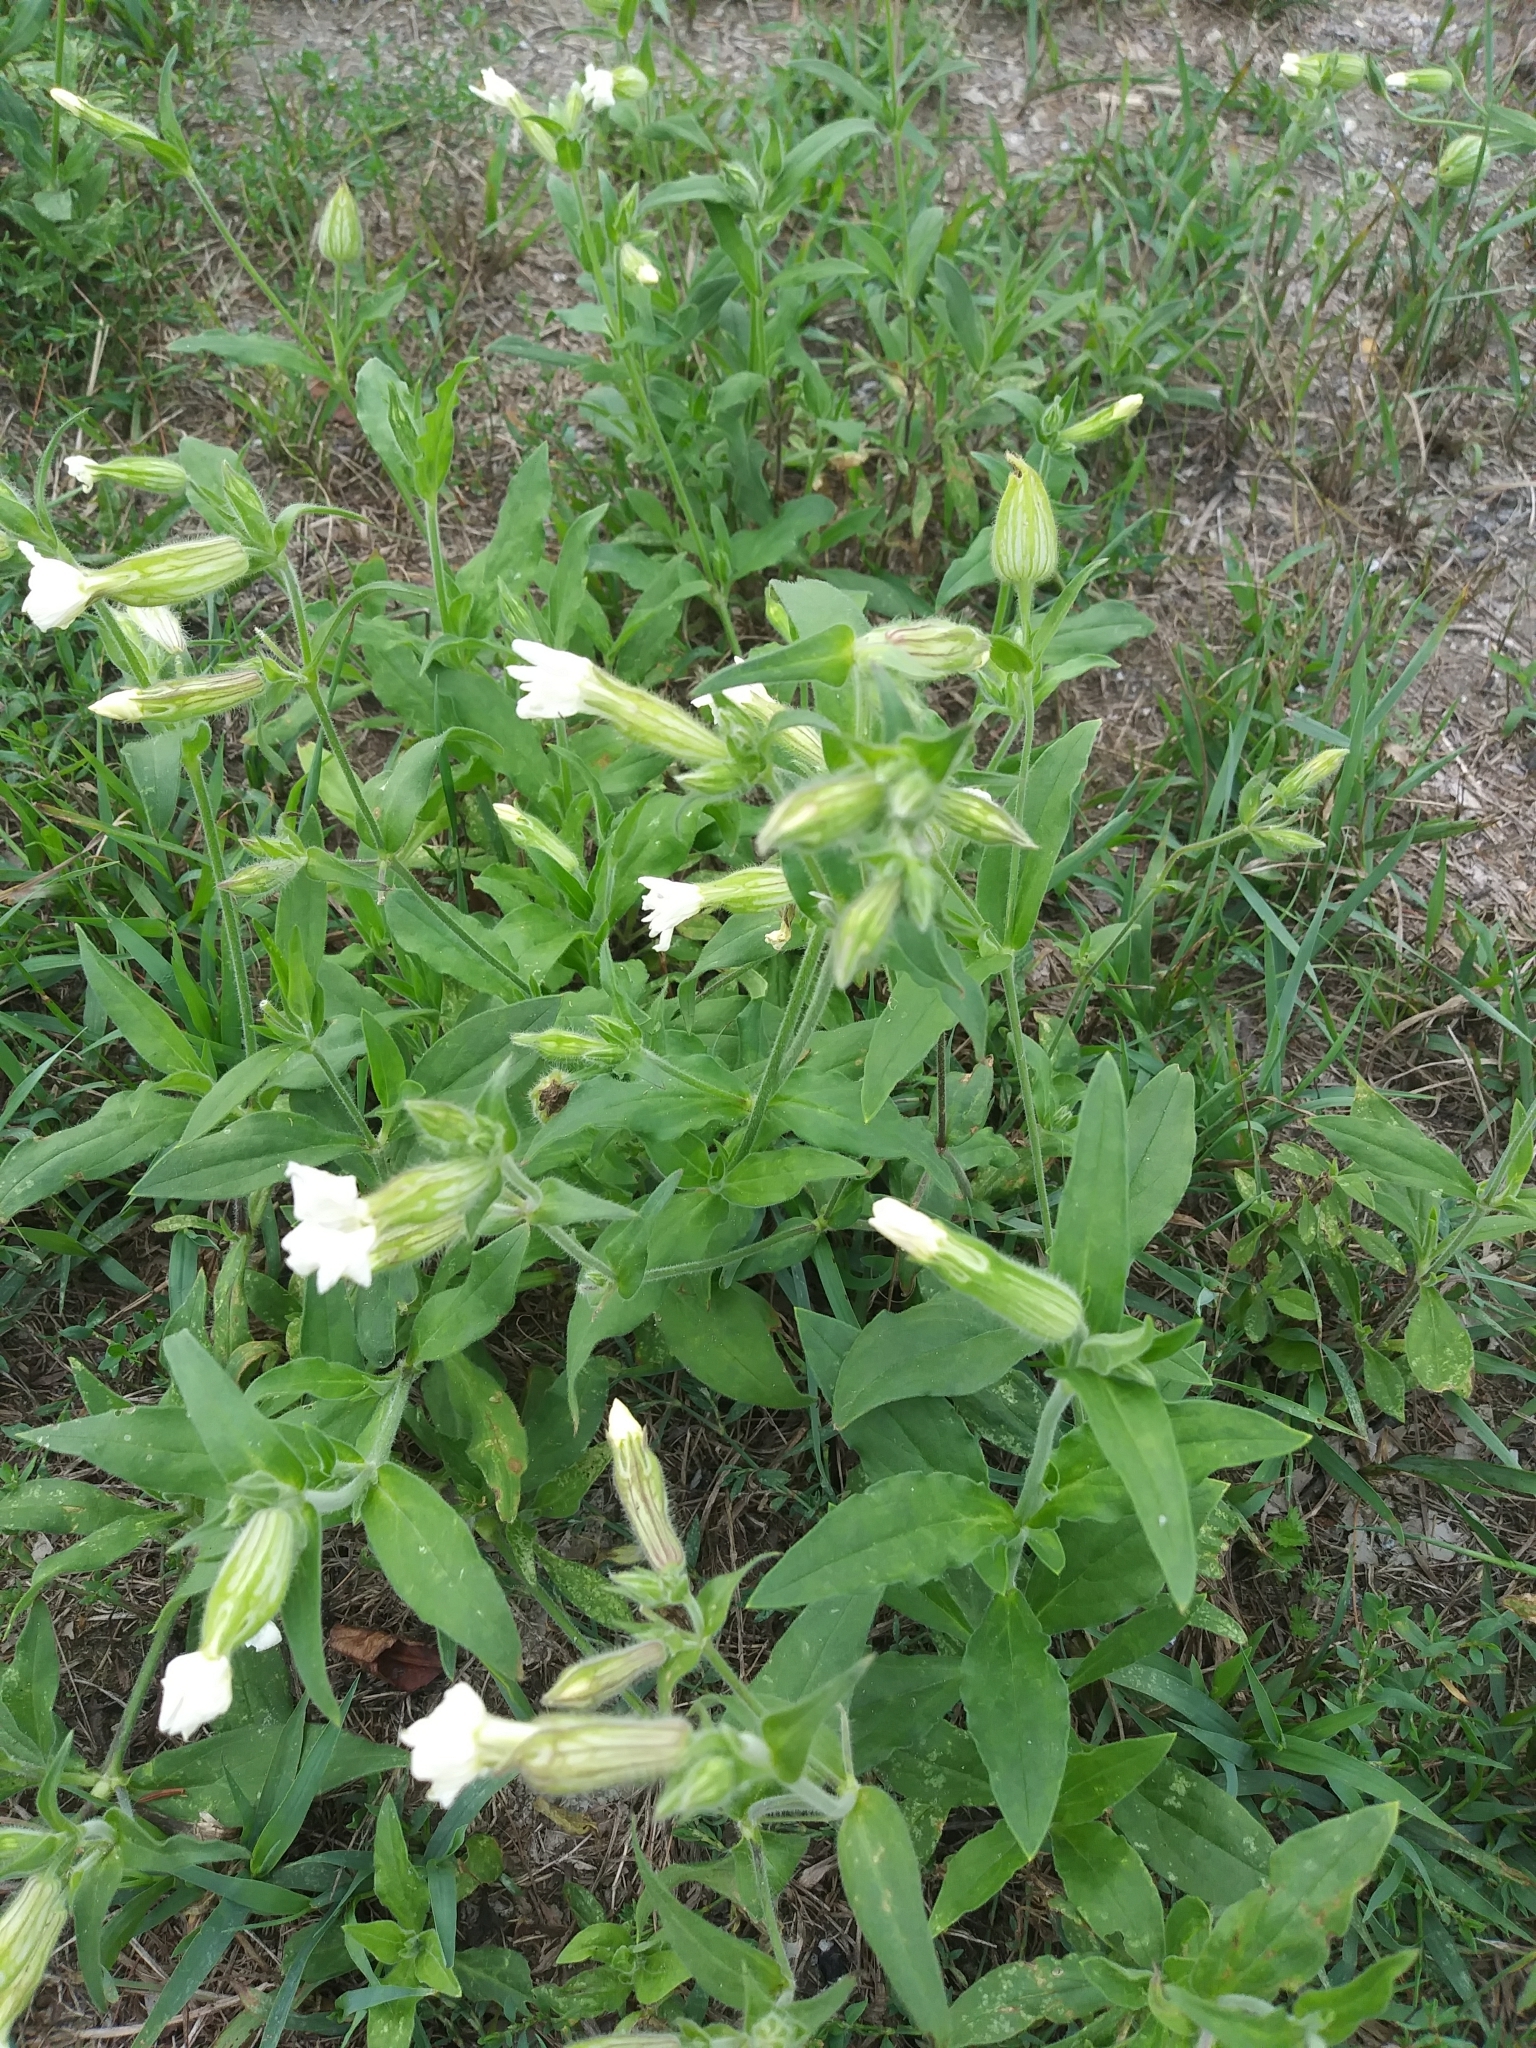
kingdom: Plantae
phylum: Tracheophyta
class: Magnoliopsida
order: Caryophyllales
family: Caryophyllaceae
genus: Silene
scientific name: Silene latifolia
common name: White campion
